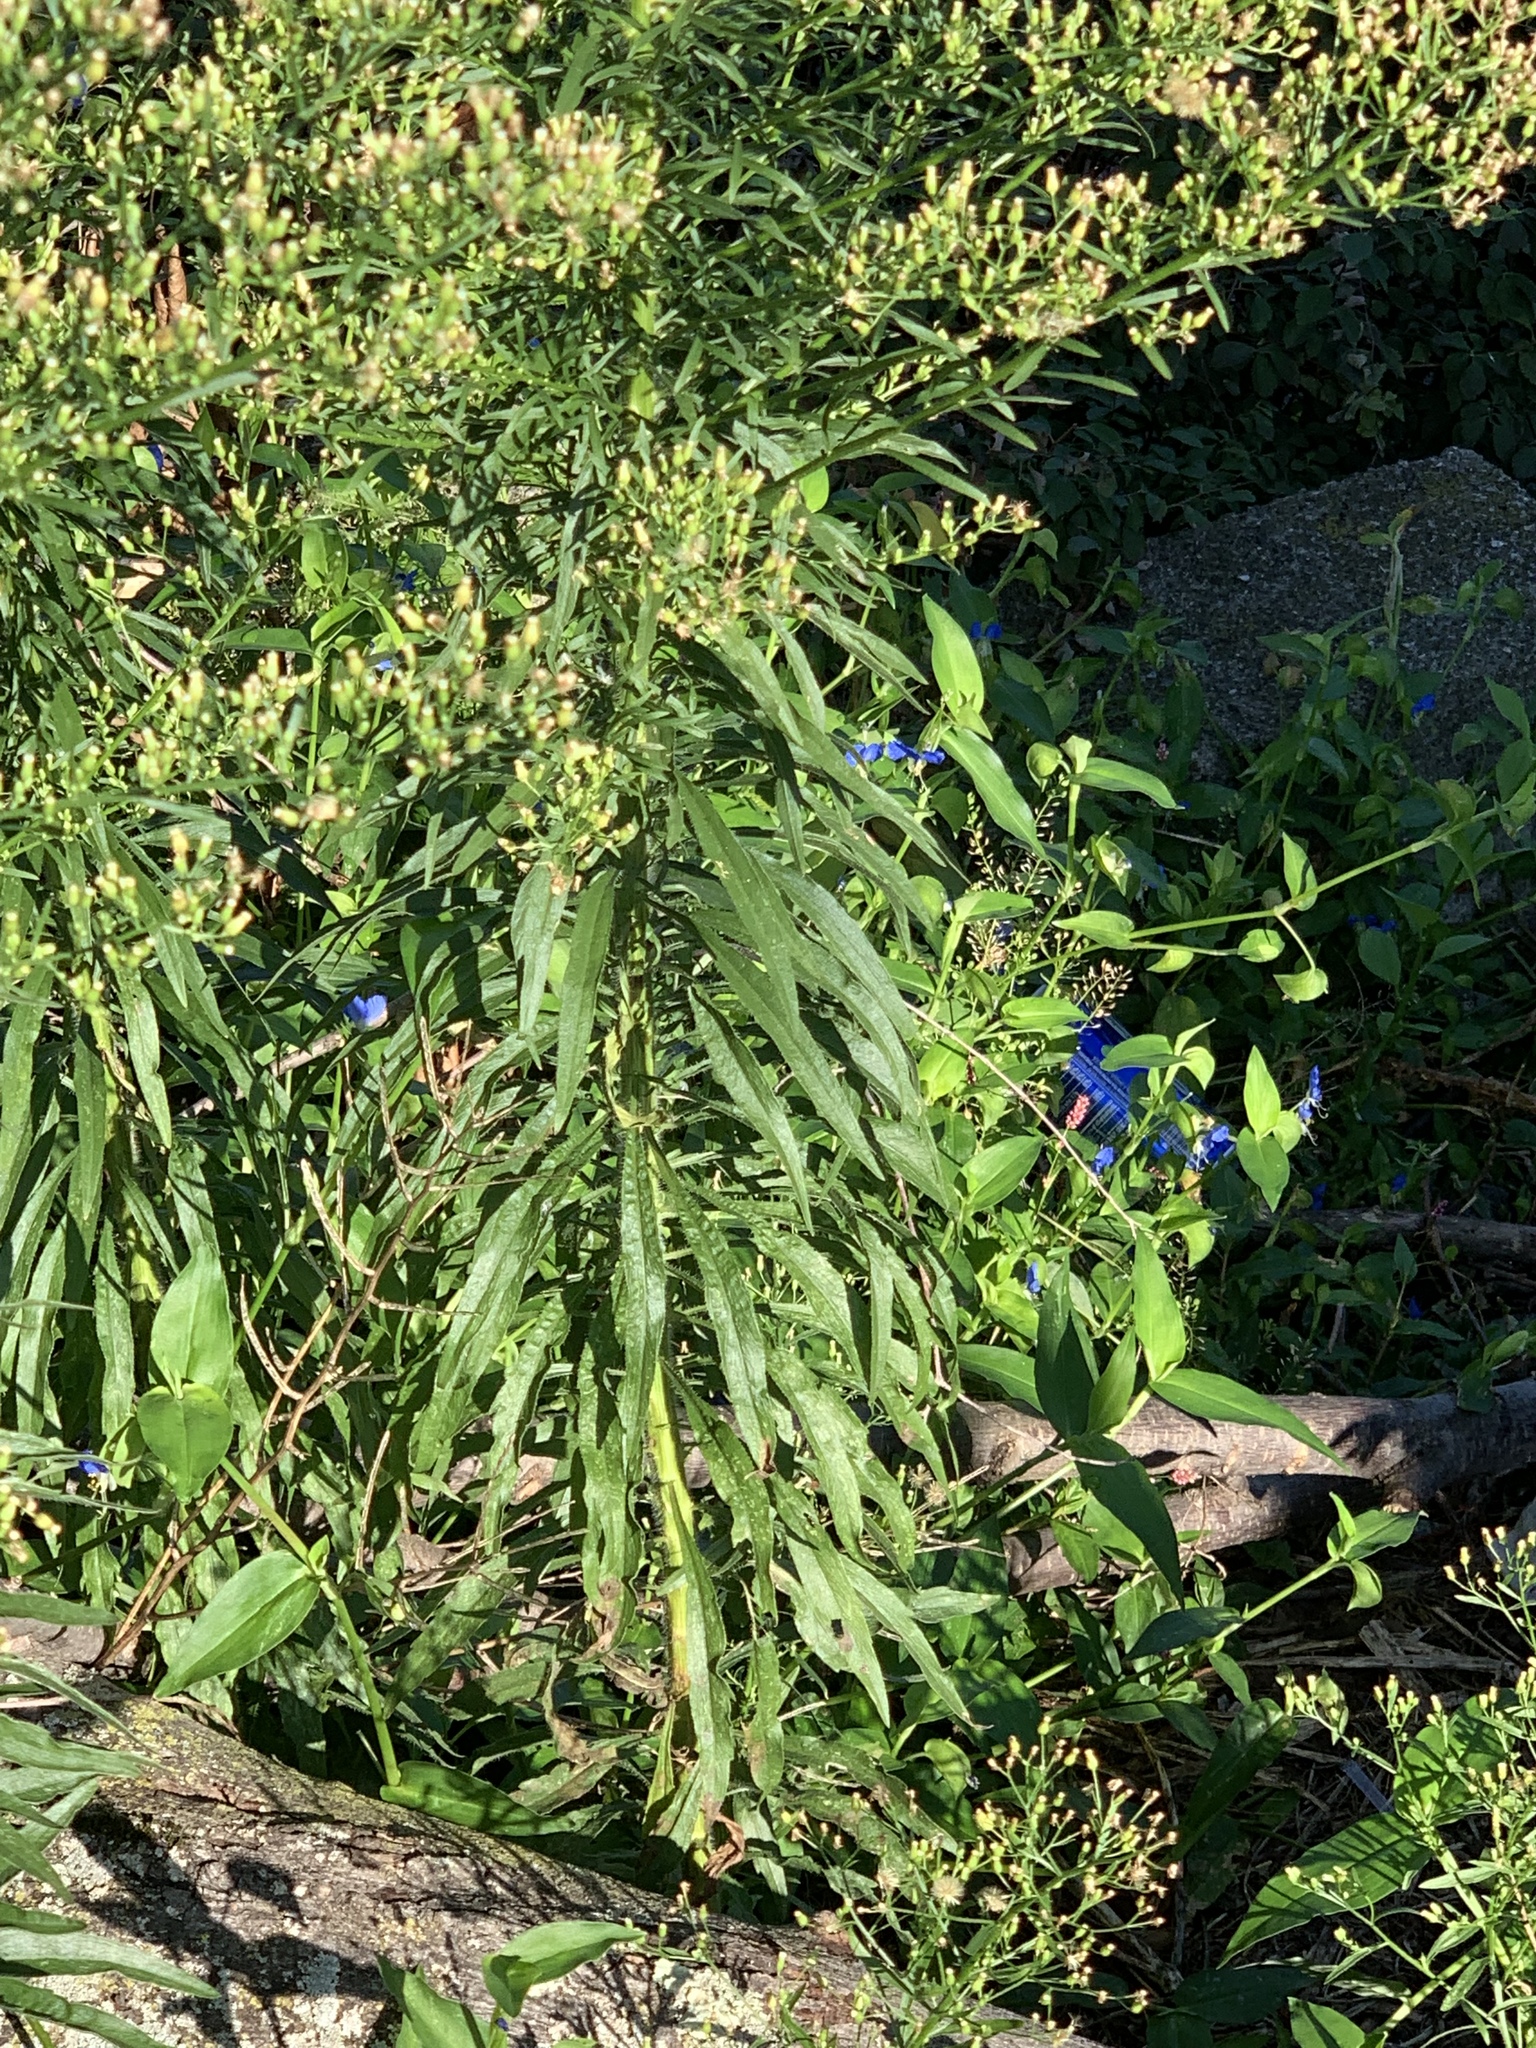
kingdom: Plantae
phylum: Tracheophyta
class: Magnoliopsida
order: Asterales
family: Asteraceae
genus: Erigeron
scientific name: Erigeron canadensis
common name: Canadian fleabane
